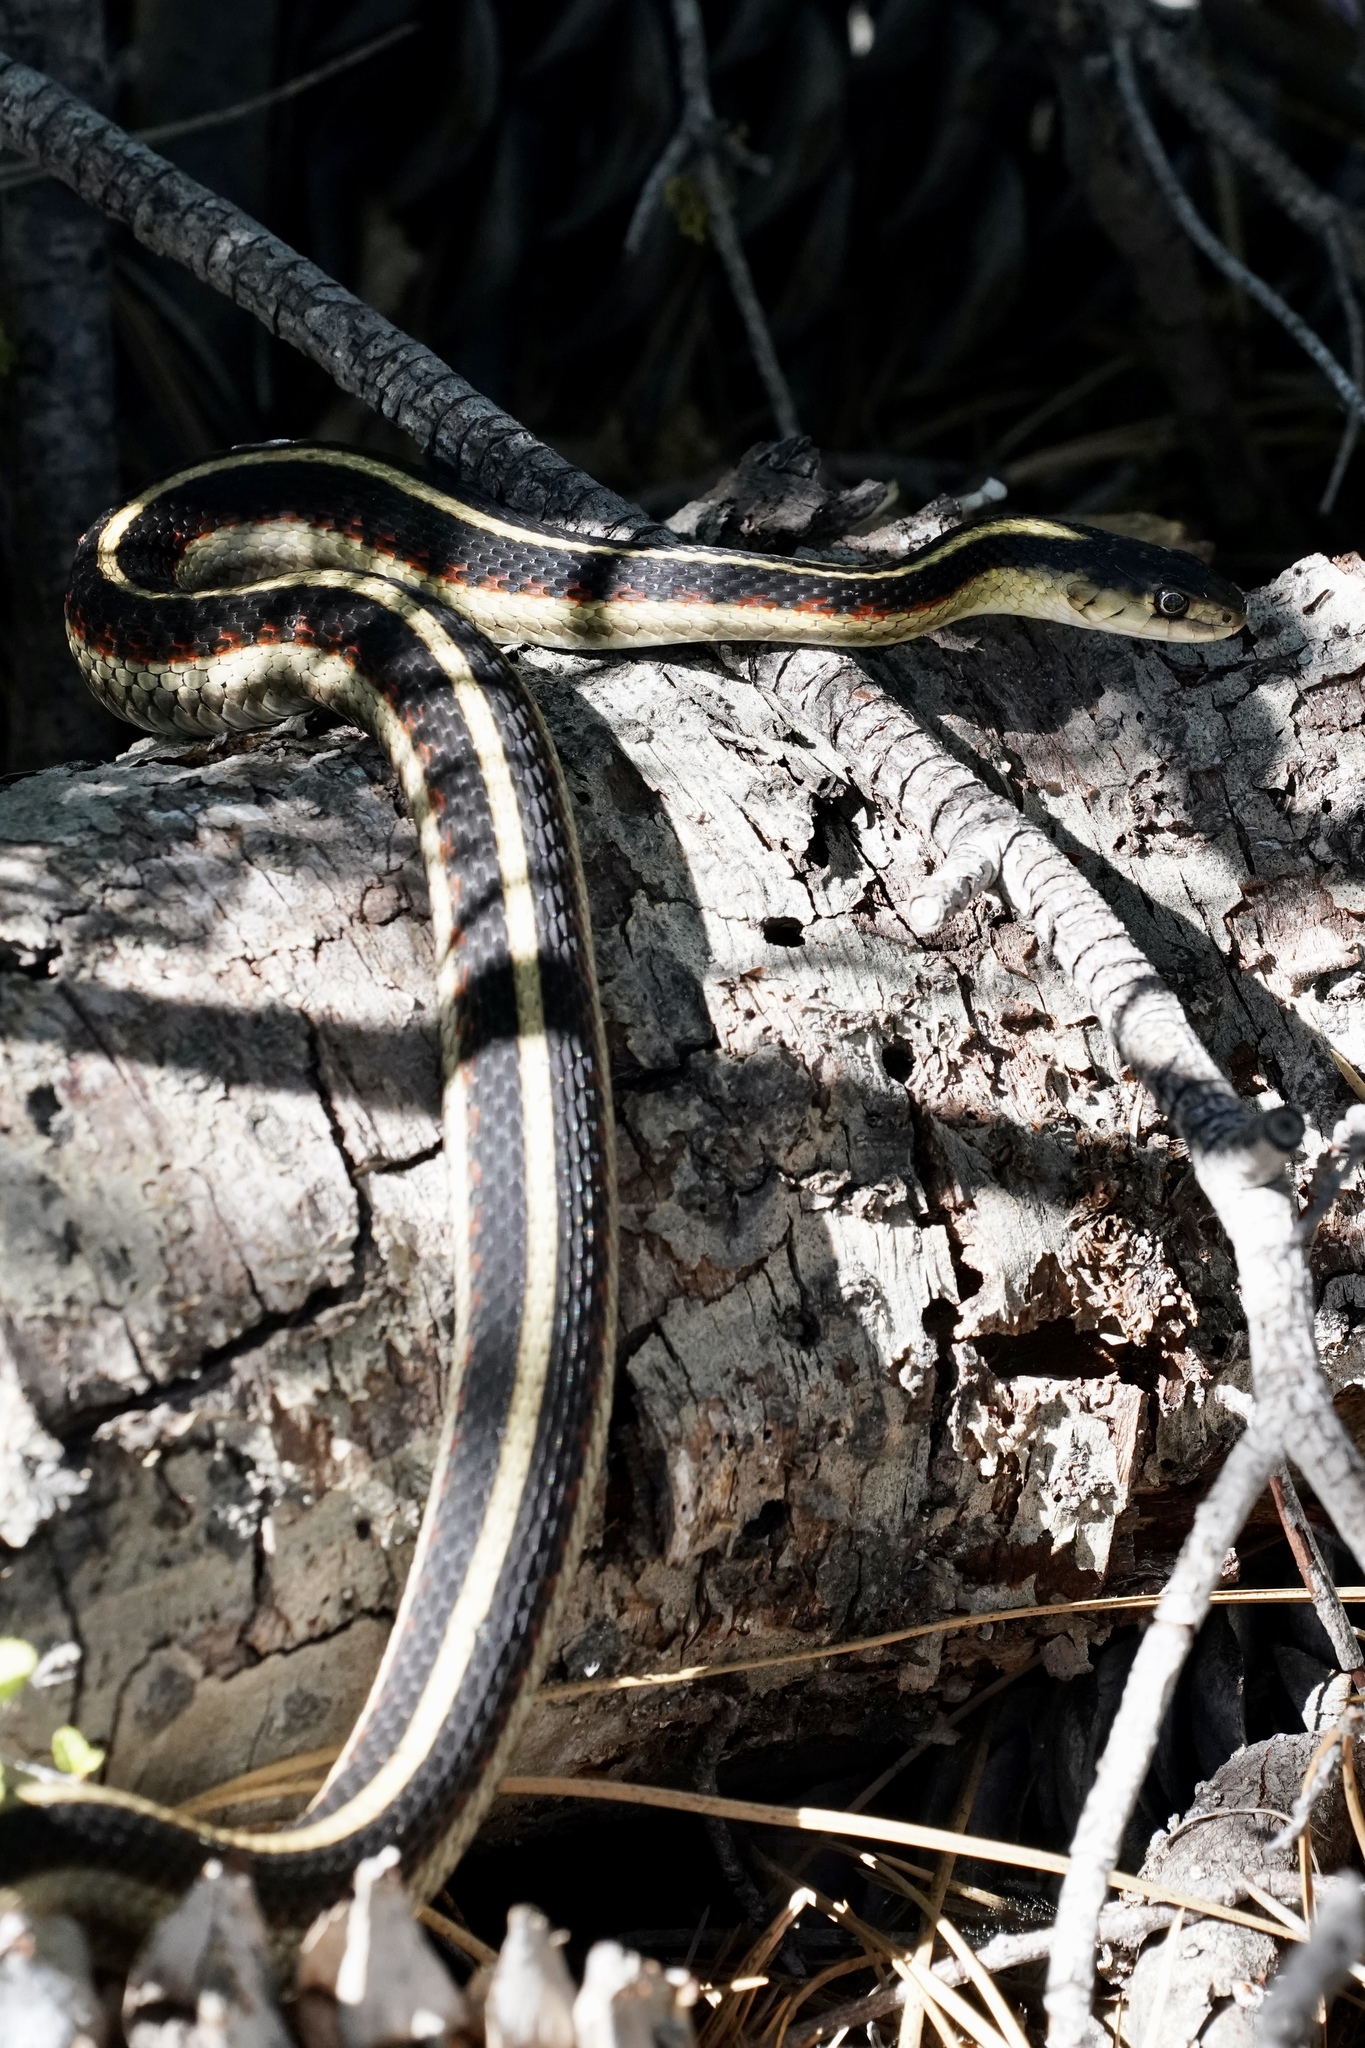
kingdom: Animalia
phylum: Chordata
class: Squamata
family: Colubridae
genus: Thamnophis
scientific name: Thamnophis sirtalis
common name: Common garter snake
